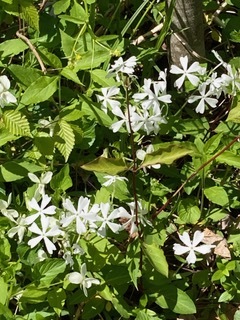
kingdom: Plantae
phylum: Tracheophyta
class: Magnoliopsida
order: Ericales
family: Polemoniaceae
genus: Phlox
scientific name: Phlox divaricata
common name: Blue phlox
